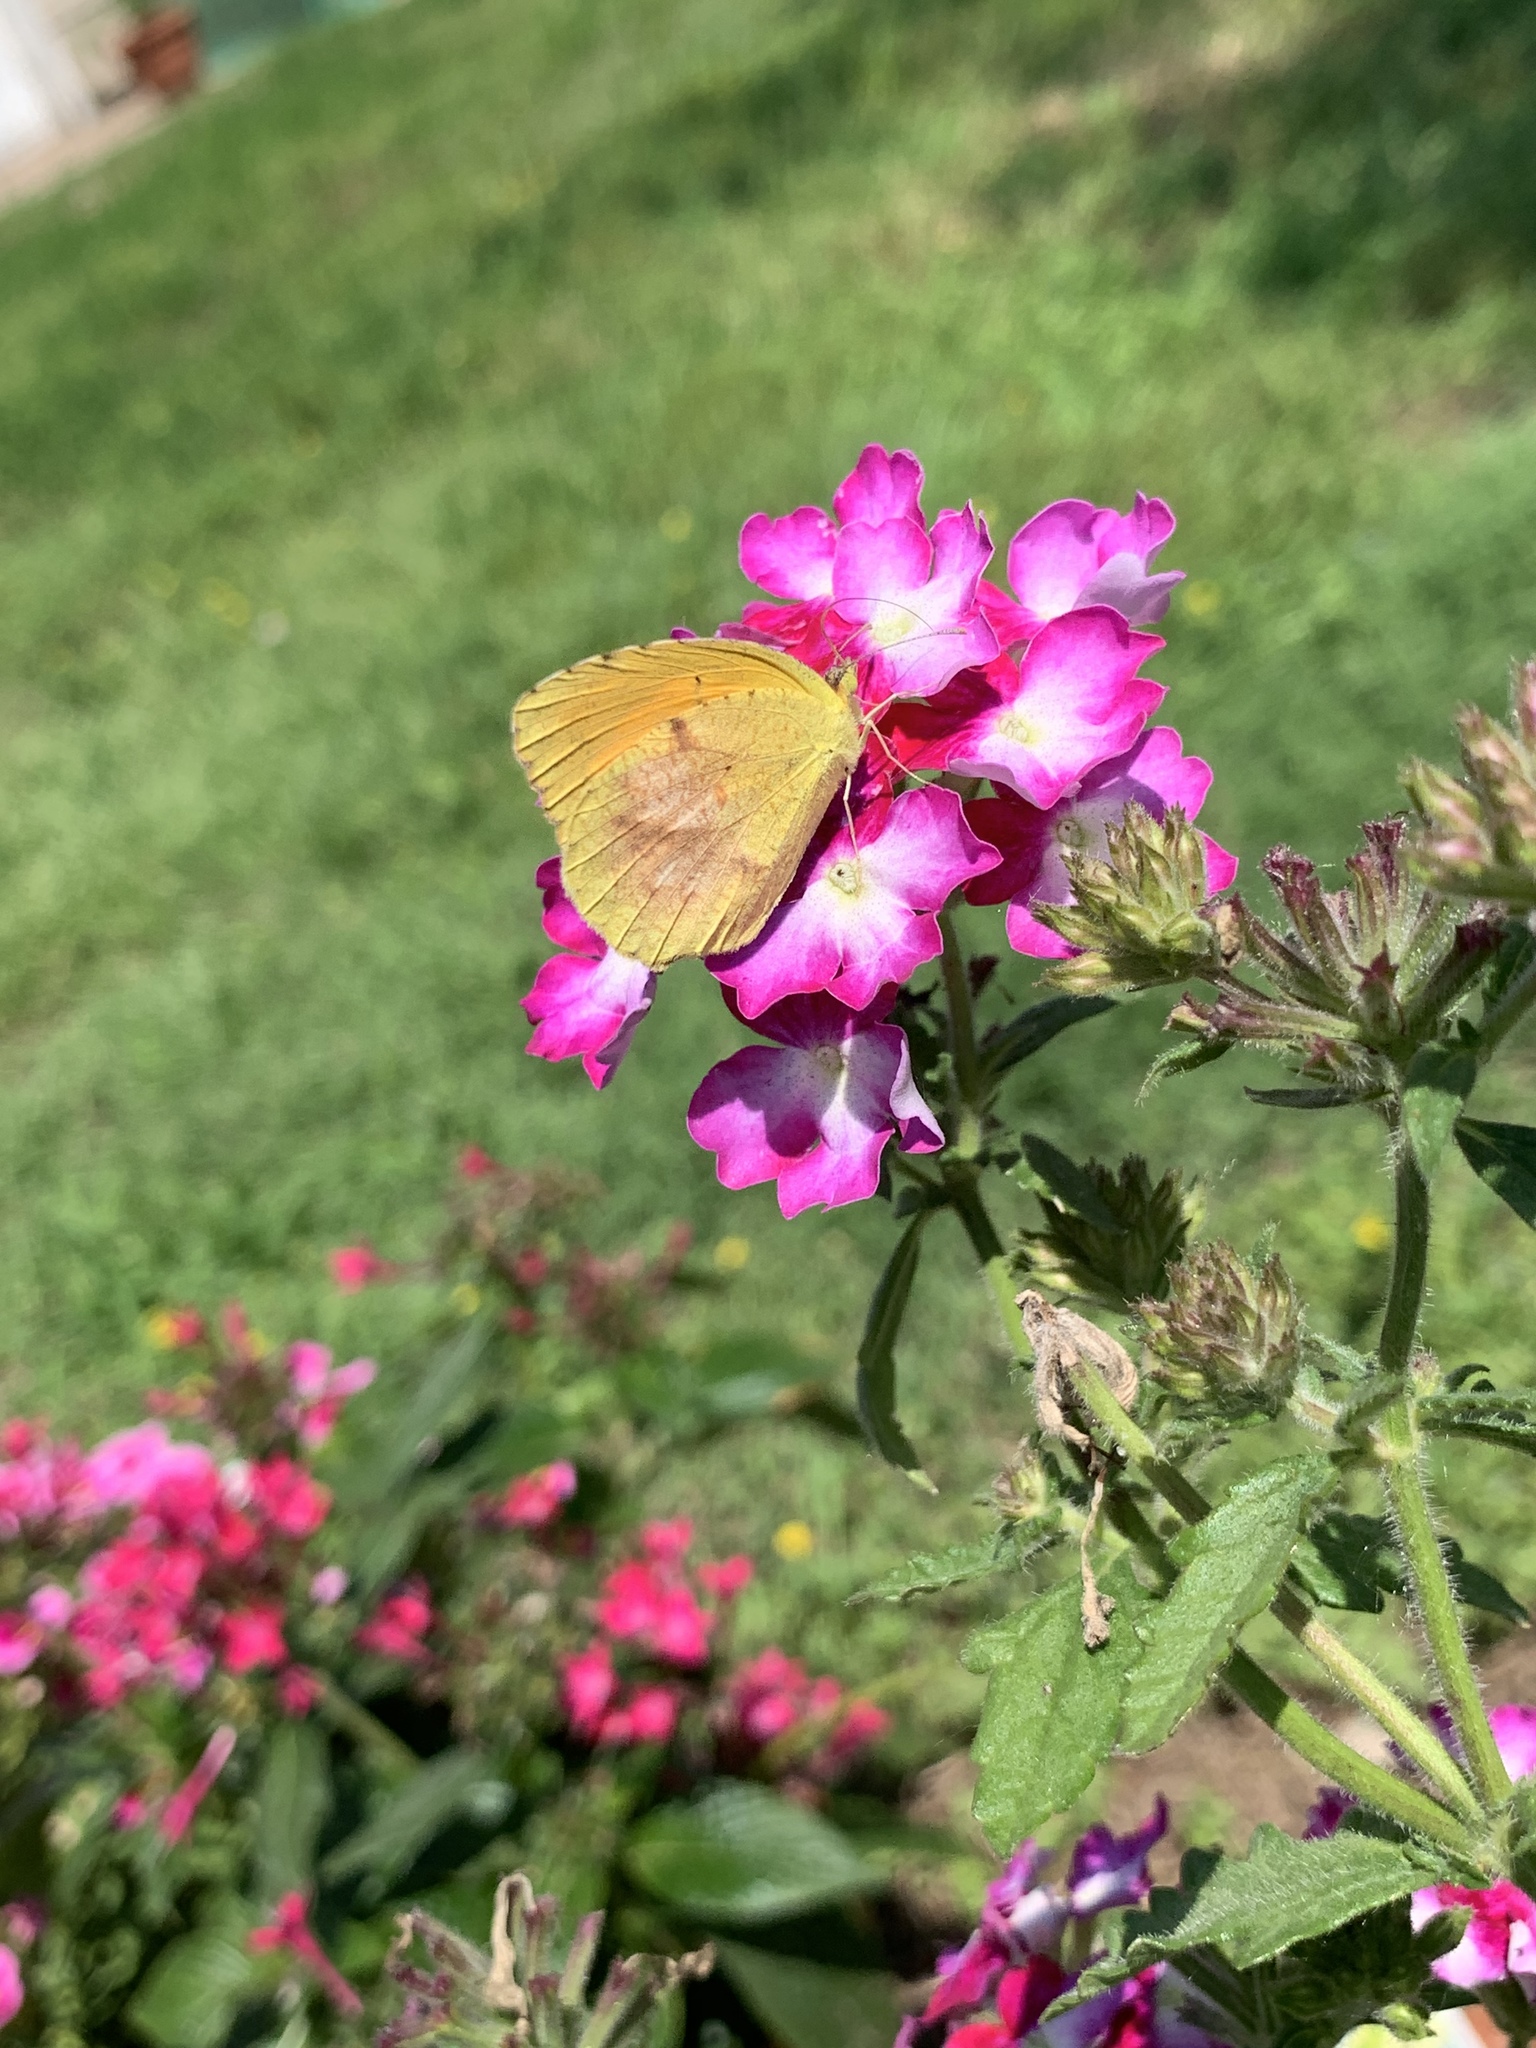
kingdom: Animalia
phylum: Arthropoda
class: Insecta
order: Lepidoptera
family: Pieridae
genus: Abaeis
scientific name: Abaeis nicippe
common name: Sleepy orange
